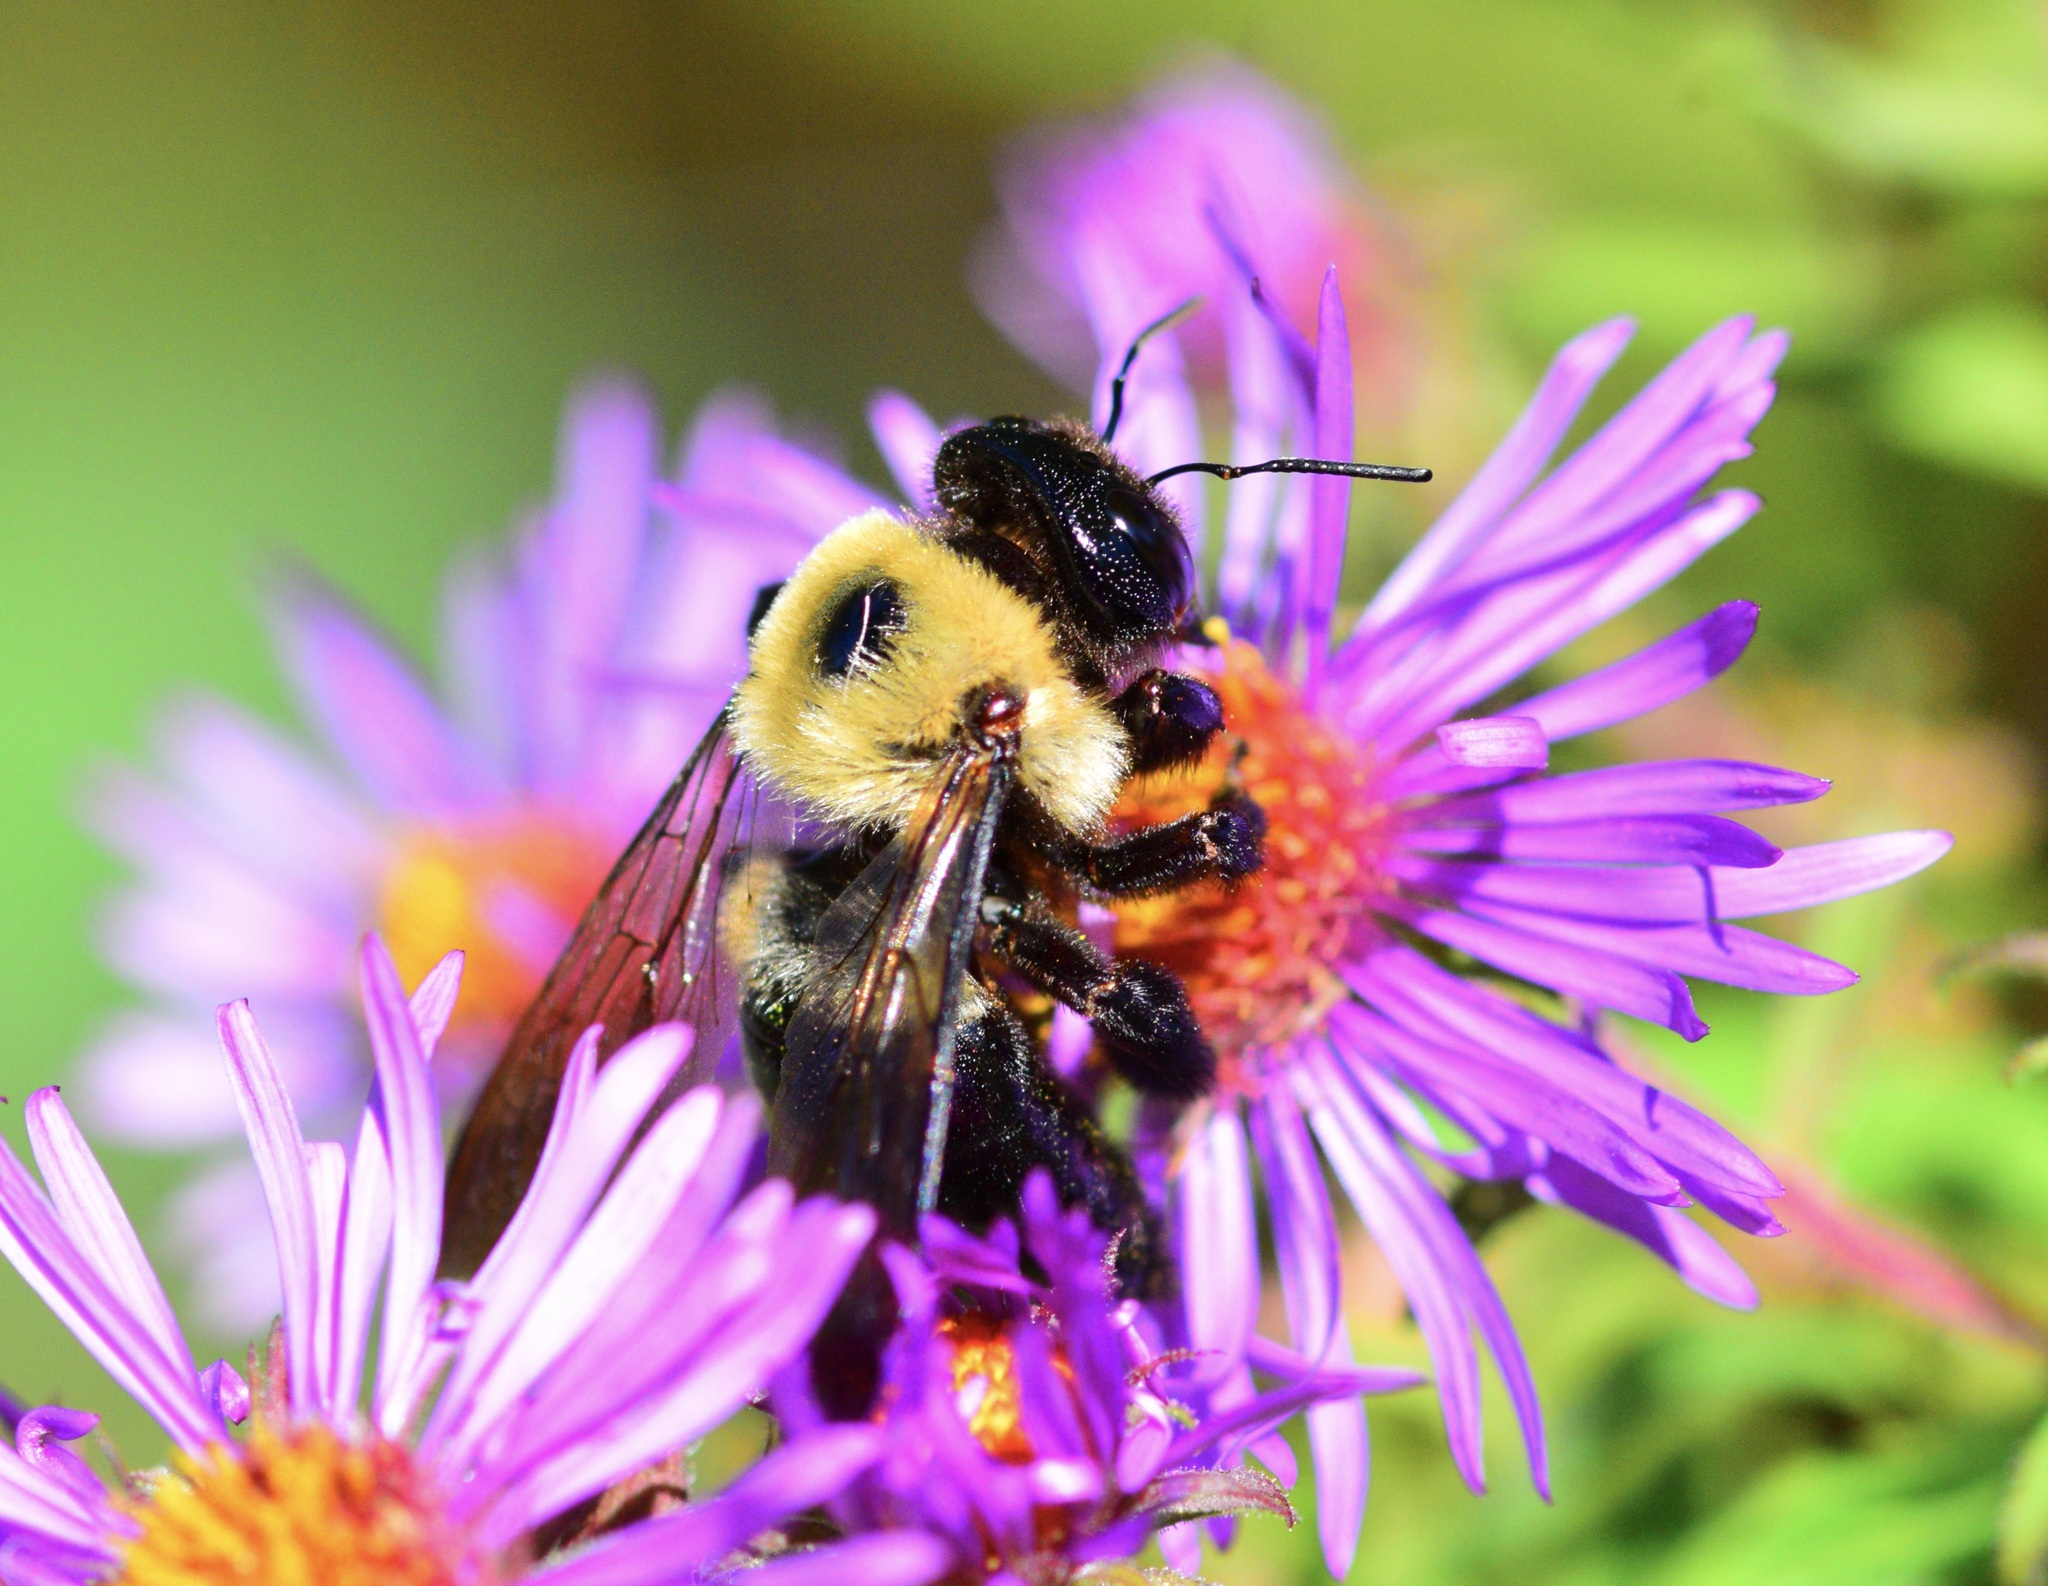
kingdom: Animalia
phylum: Arthropoda
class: Insecta
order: Hymenoptera
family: Apidae
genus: Xylocopa
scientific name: Xylocopa virginica
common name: Carpenter bee
